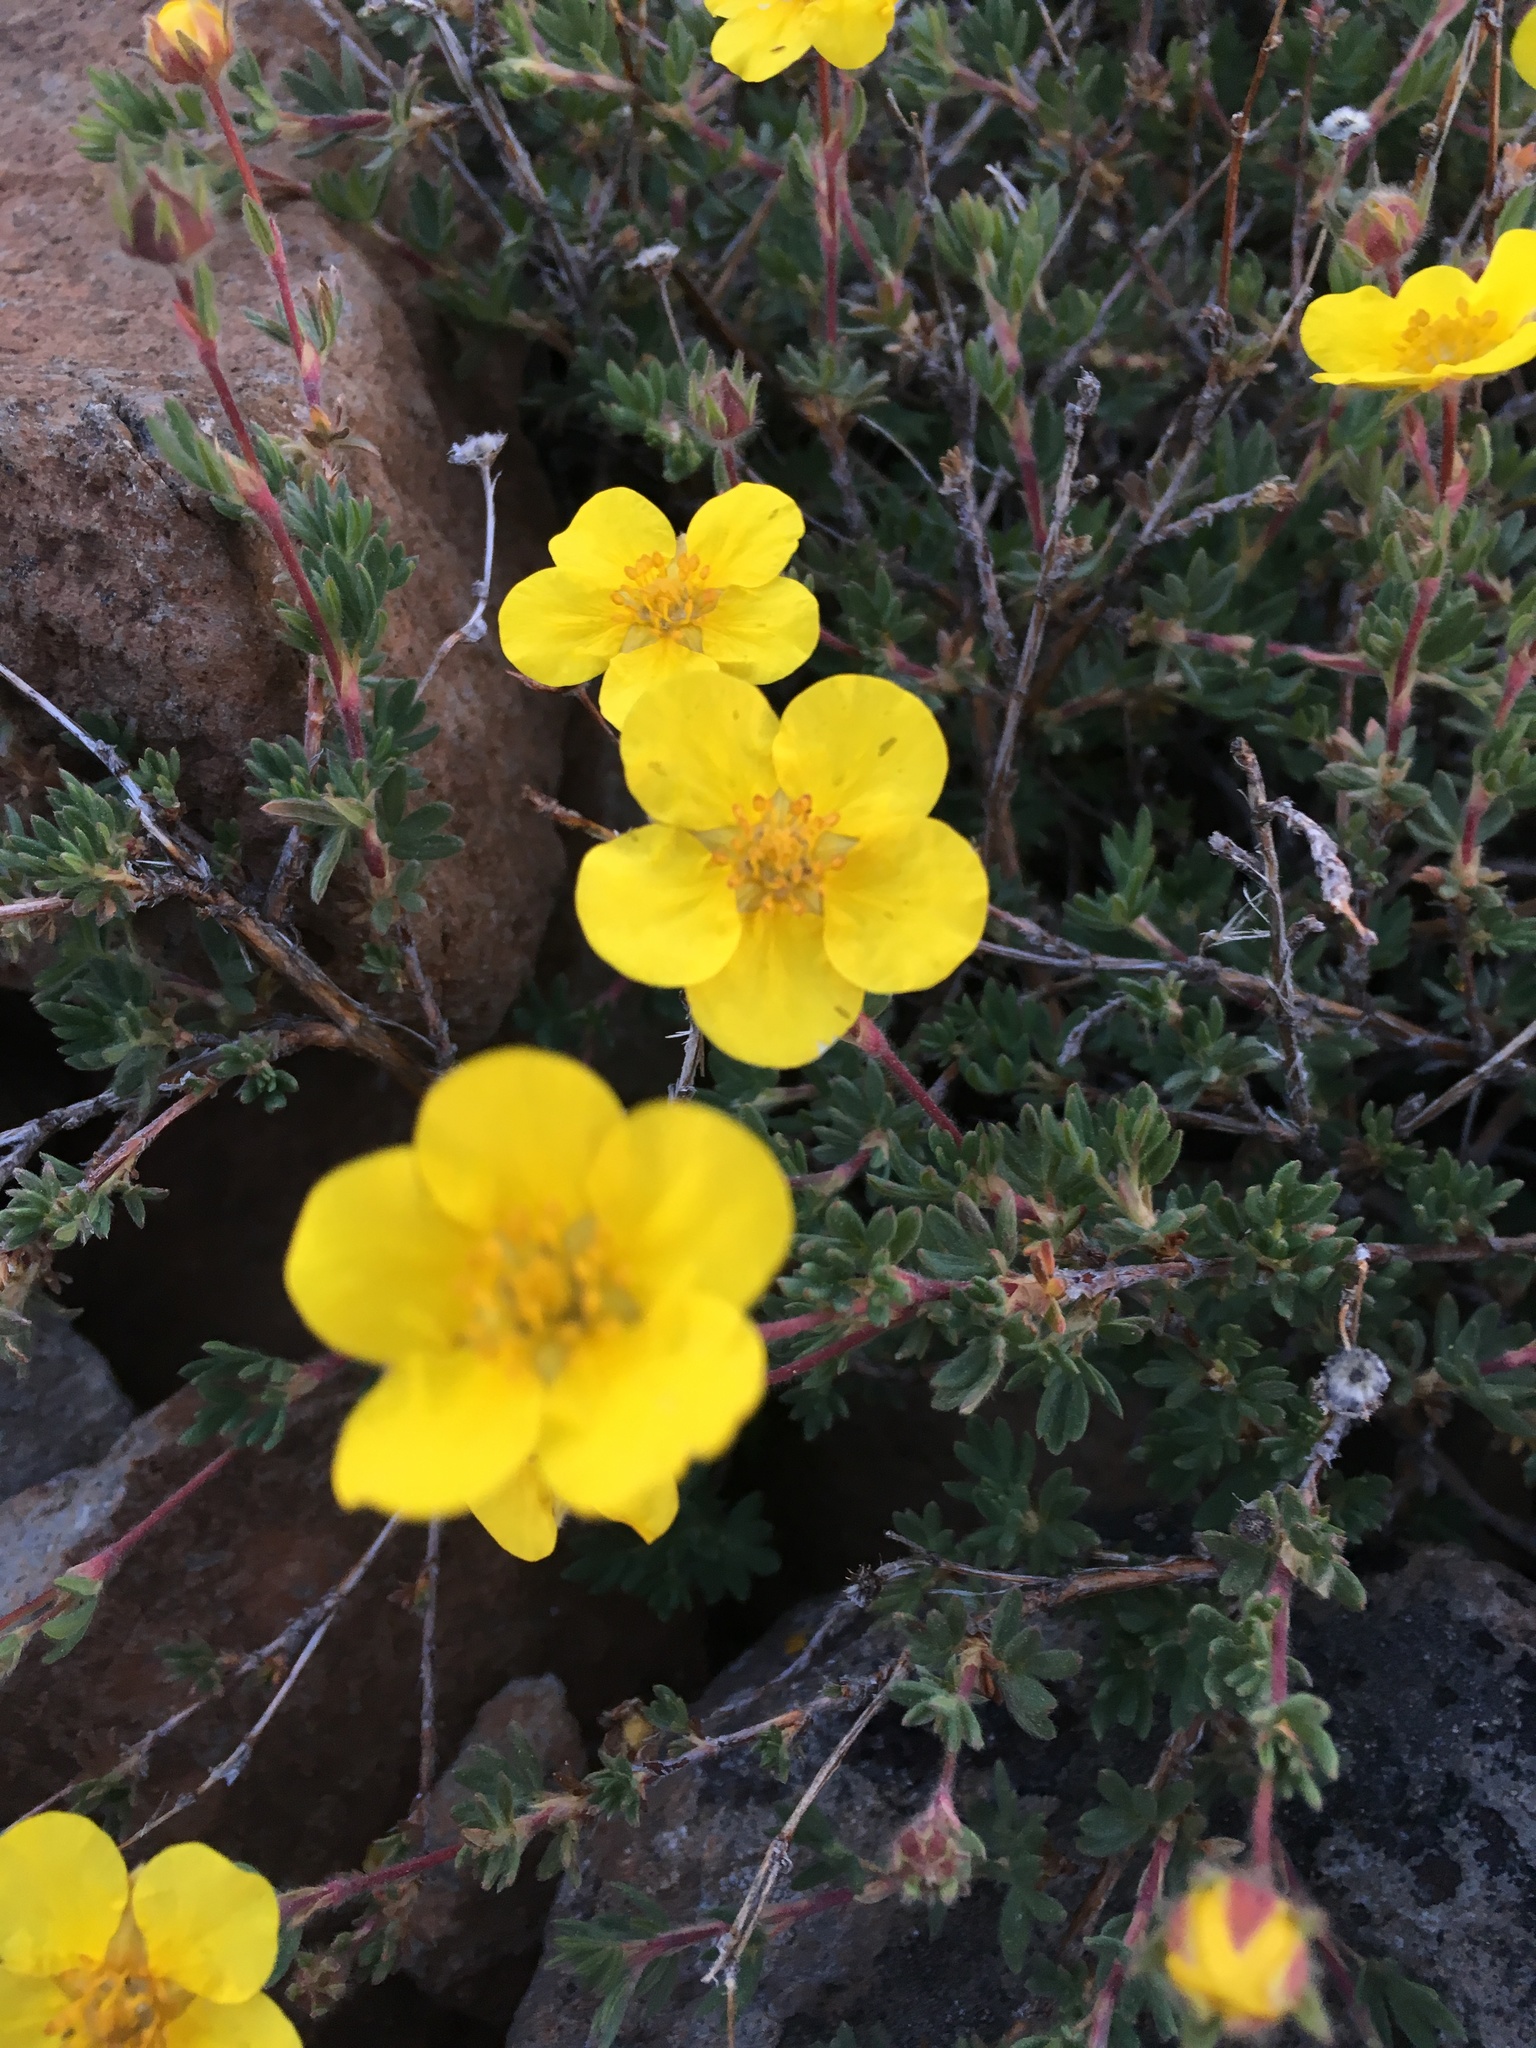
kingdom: Plantae
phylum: Tracheophyta
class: Magnoliopsida
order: Rosales
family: Rosaceae
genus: Dasiphora
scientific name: Dasiphora fruticosa
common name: Shrubby cinquefoil
